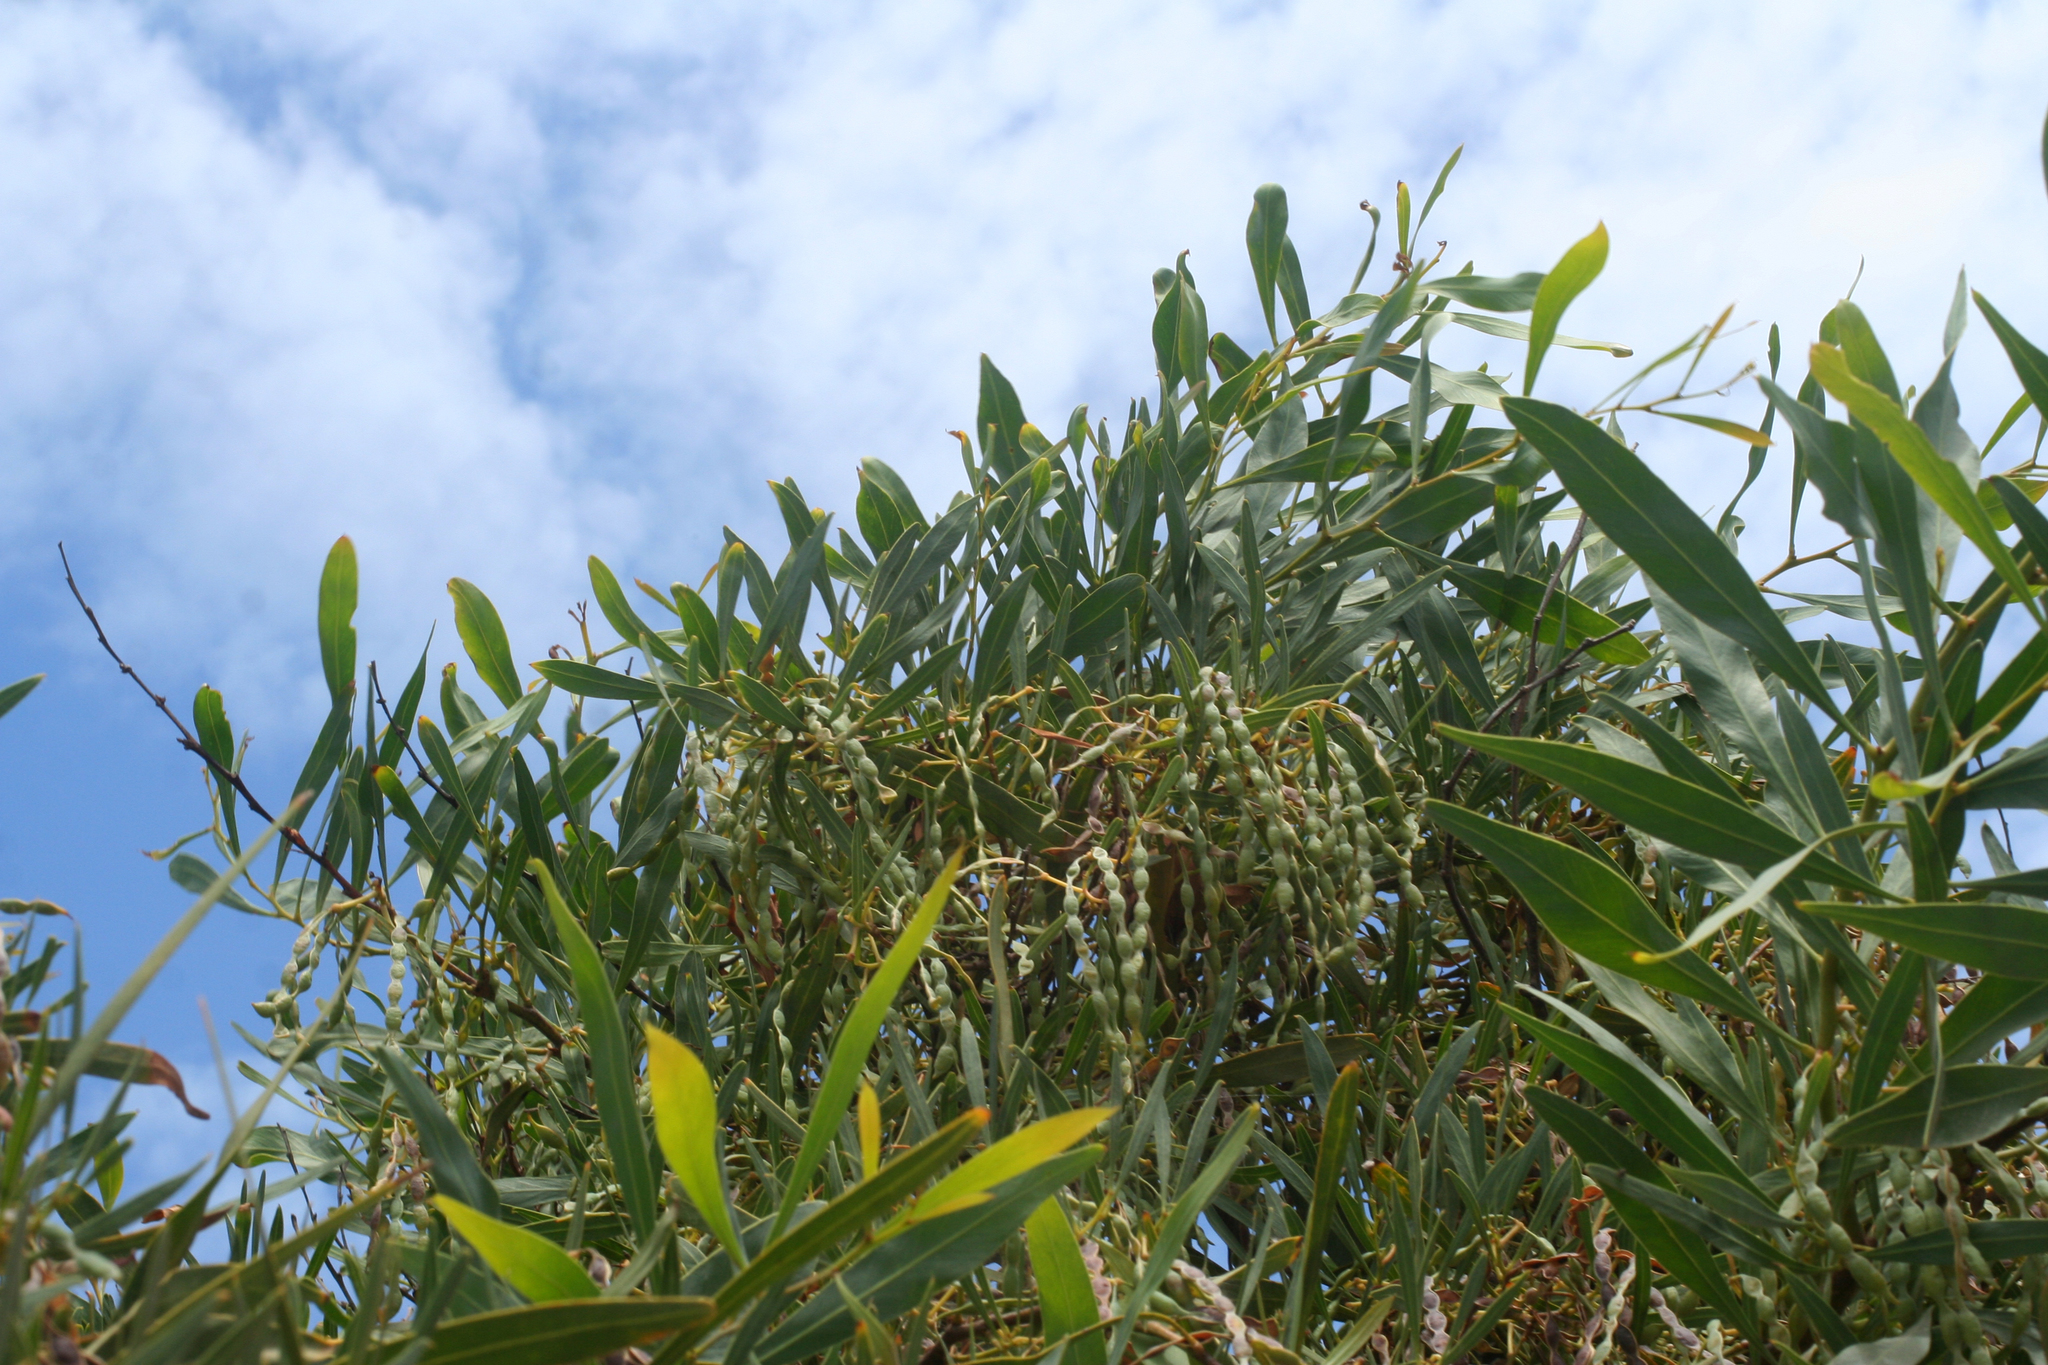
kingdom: Plantae
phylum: Tracheophyta
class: Magnoliopsida
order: Fabales
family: Fabaceae
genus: Acacia
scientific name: Acacia saligna
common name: Orange wattle
